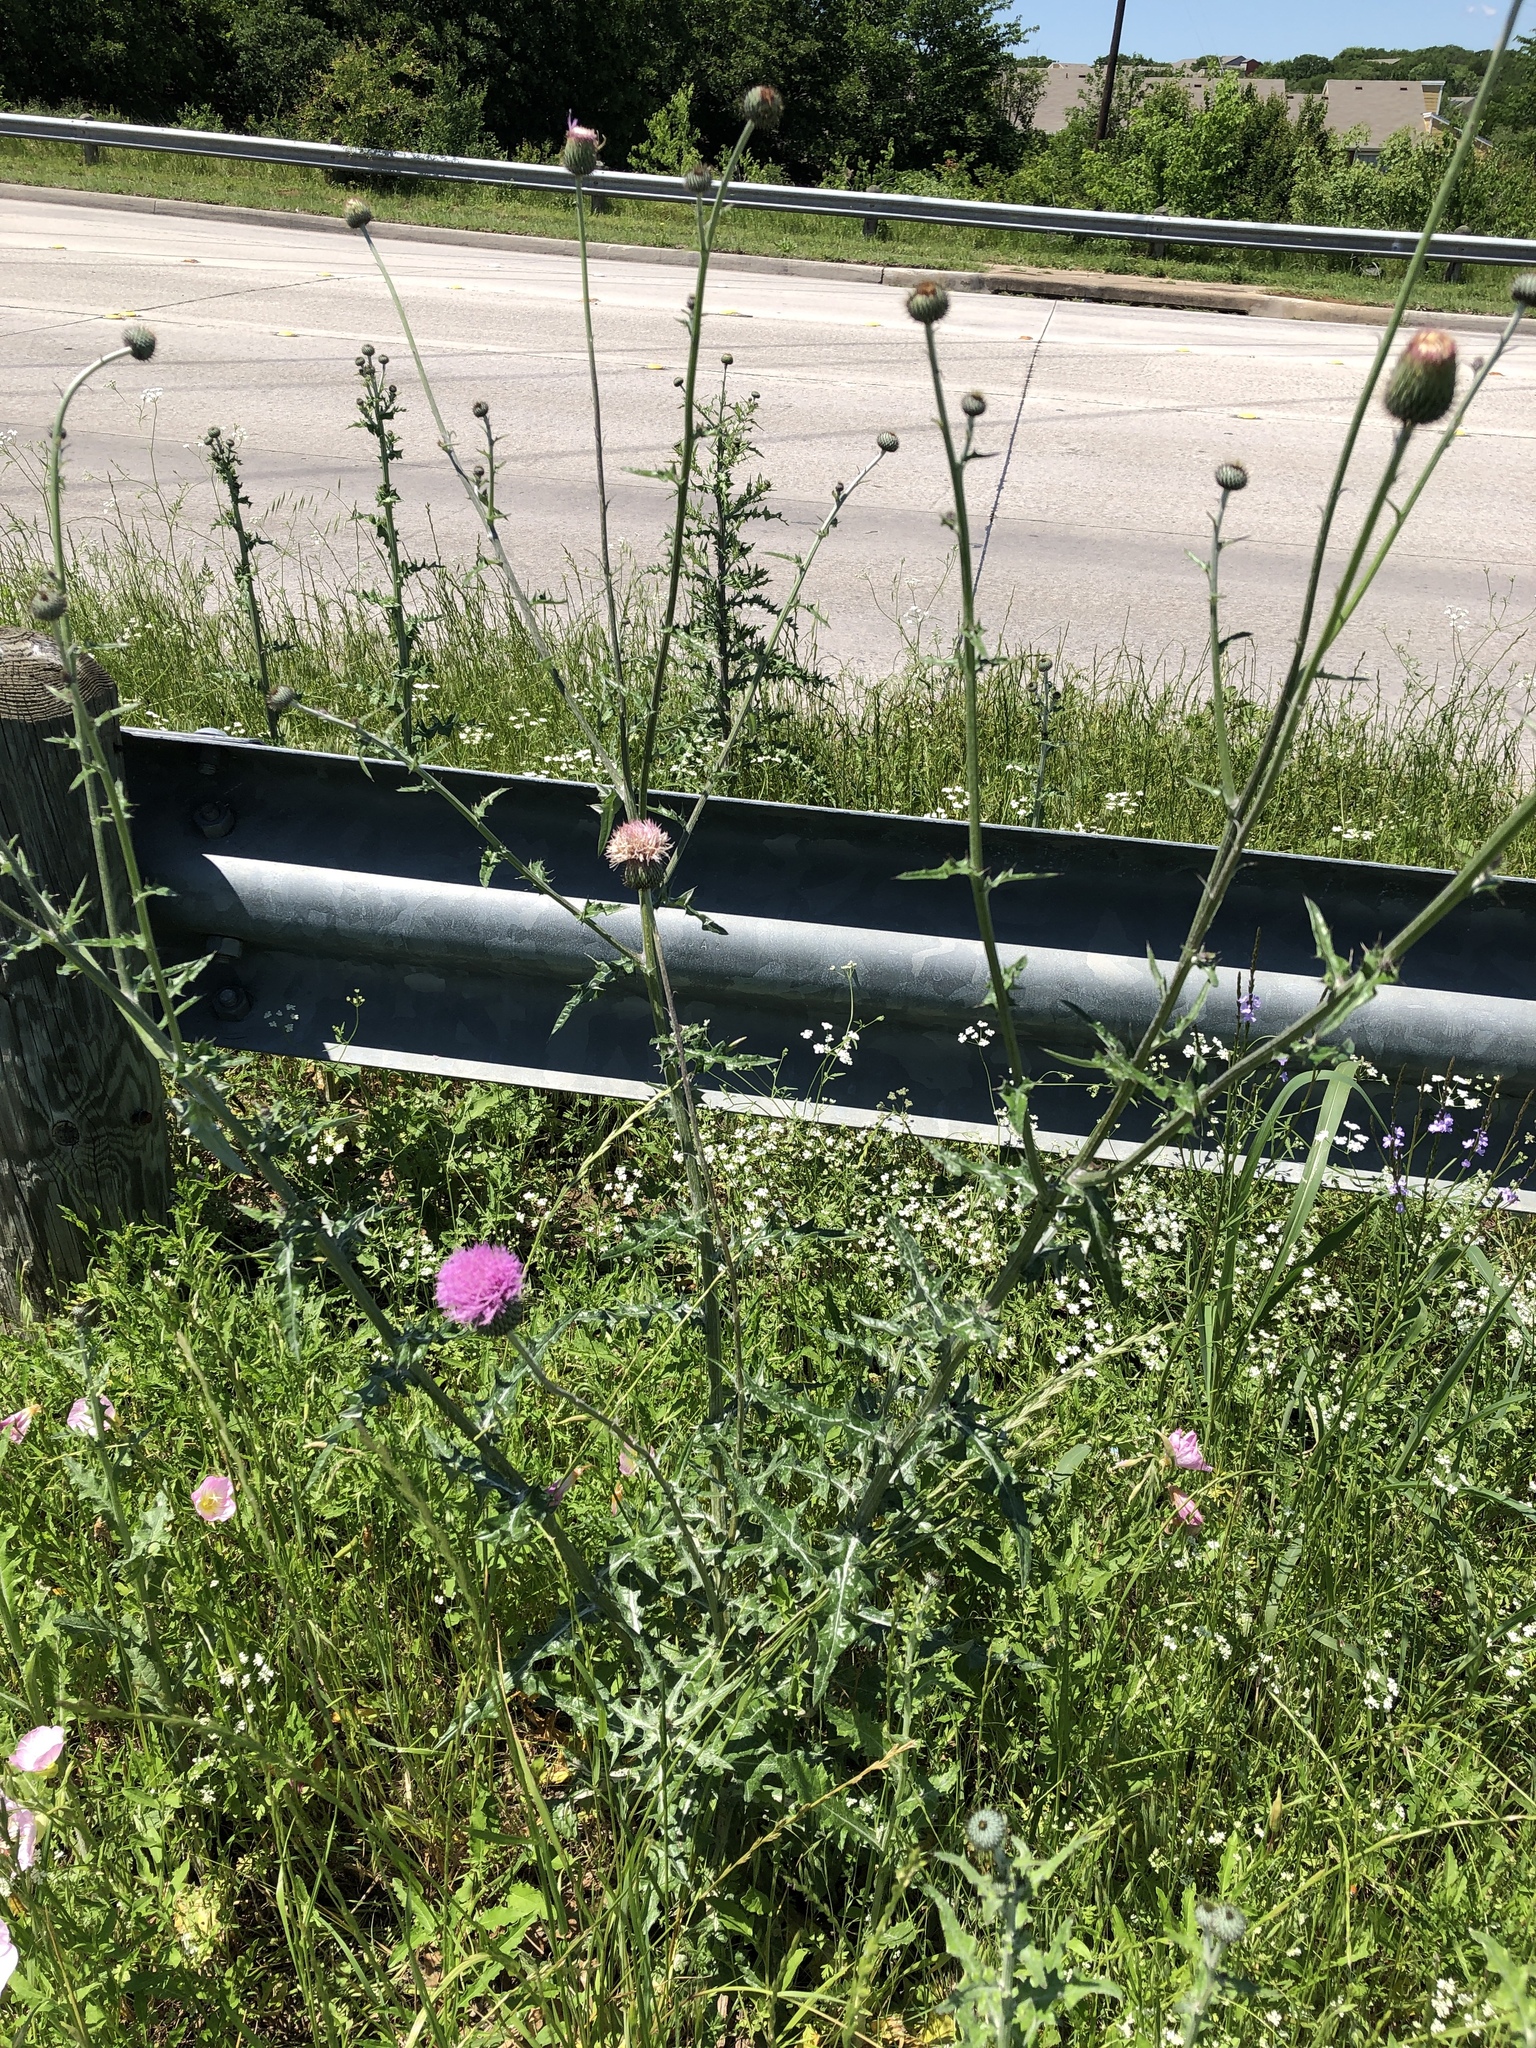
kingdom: Plantae
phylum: Tracheophyta
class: Magnoliopsida
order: Asterales
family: Asteraceae
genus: Cirsium
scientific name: Cirsium texanum
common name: Texas purple thistle
